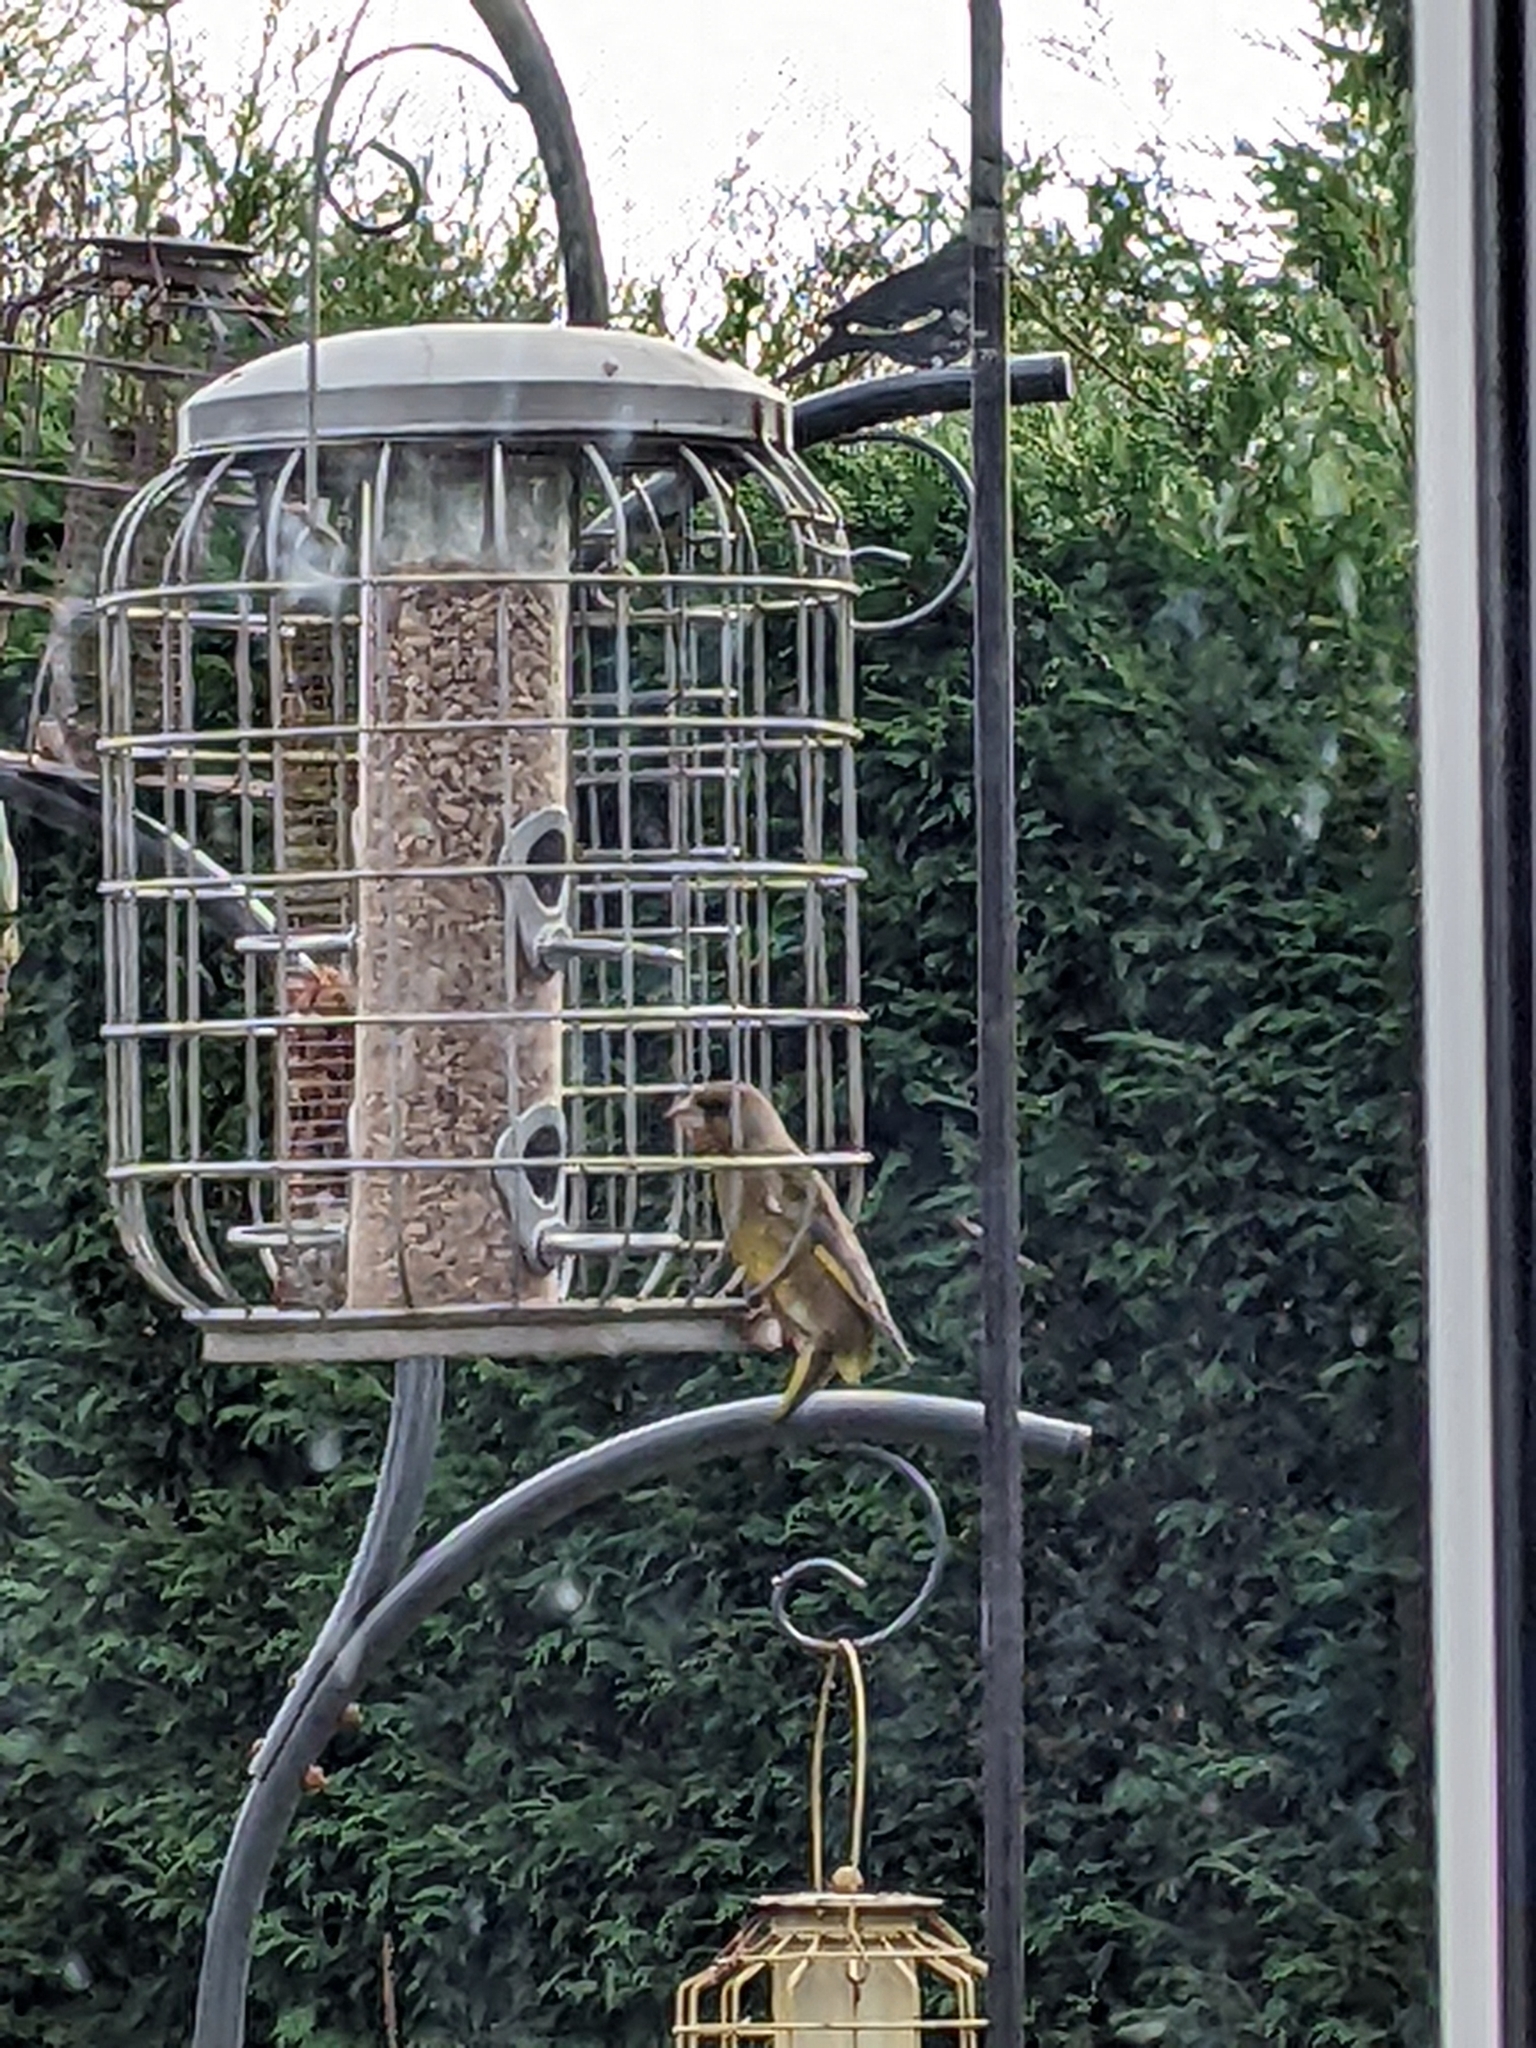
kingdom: Plantae
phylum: Tracheophyta
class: Liliopsida
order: Poales
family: Poaceae
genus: Chloris
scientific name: Chloris chloris
